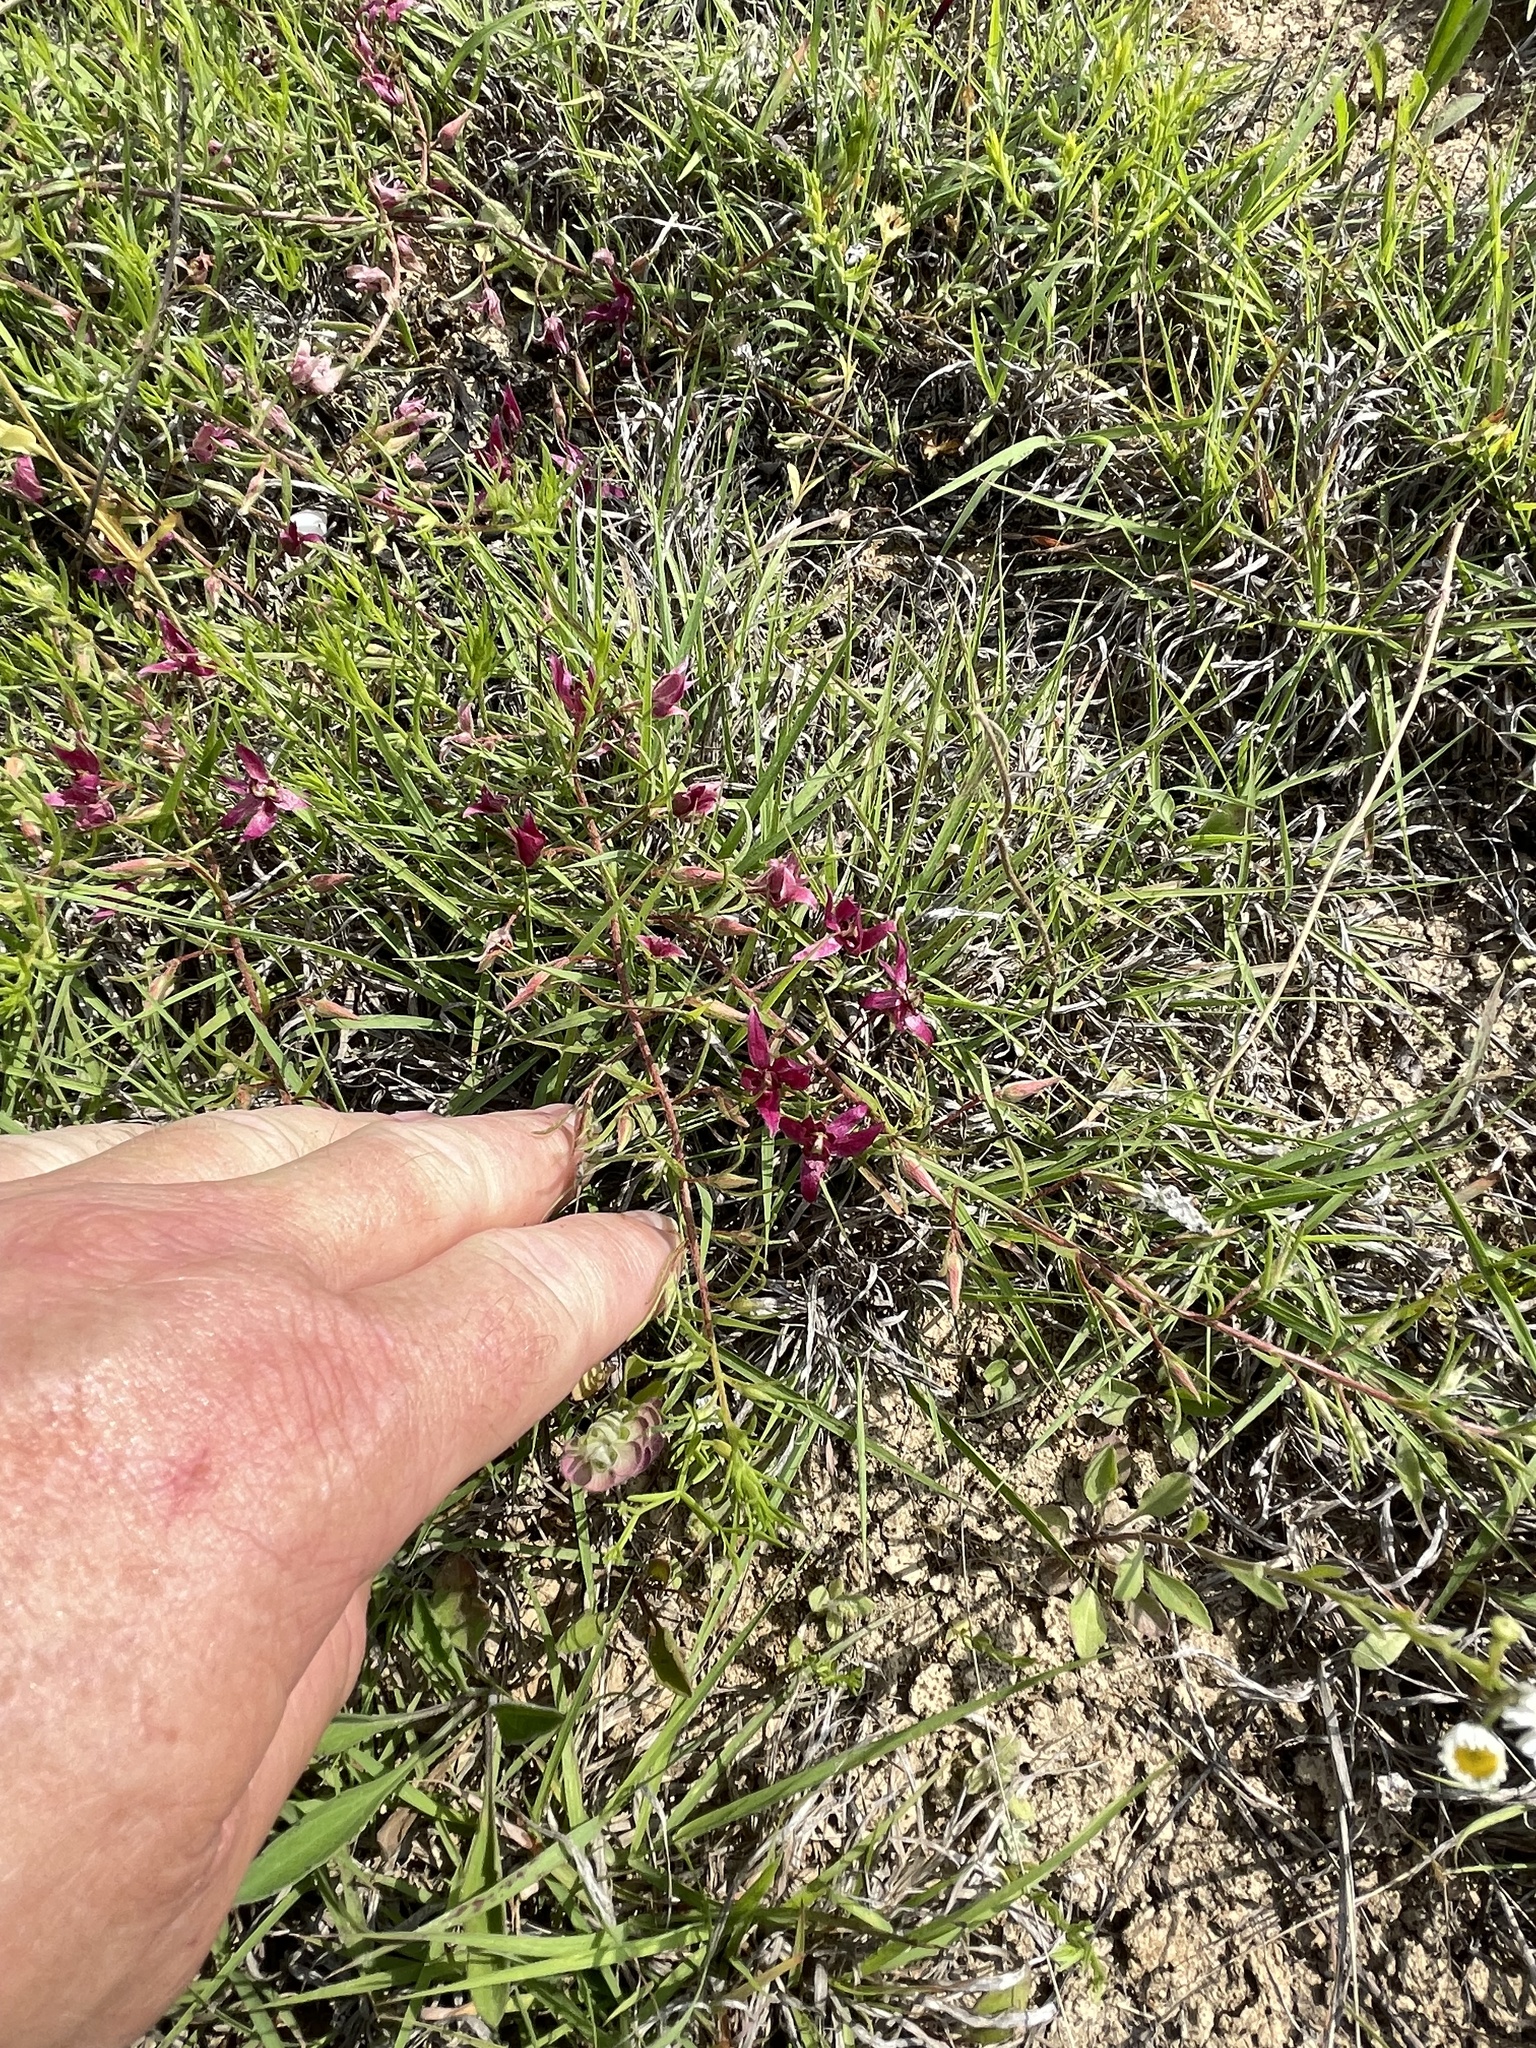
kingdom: Plantae
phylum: Tracheophyta
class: Magnoliopsida
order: Zygophyllales
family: Krameriaceae
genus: Krameria
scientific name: Krameria lanceolata
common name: Ratany
